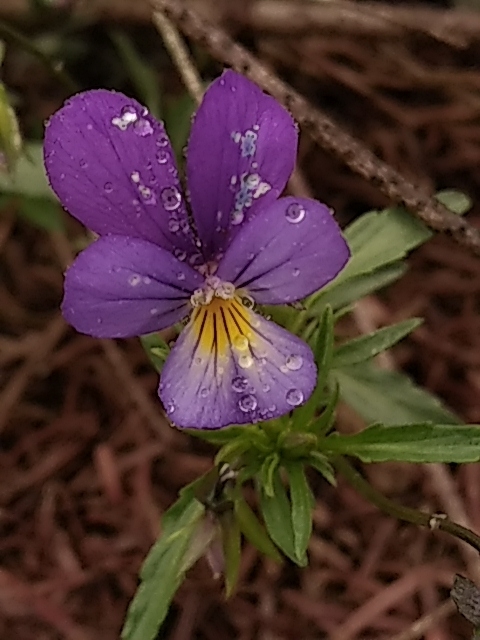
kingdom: Plantae
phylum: Tracheophyta
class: Magnoliopsida
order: Malpighiales
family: Violaceae
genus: Viola
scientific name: Viola tricolor
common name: Pansy
